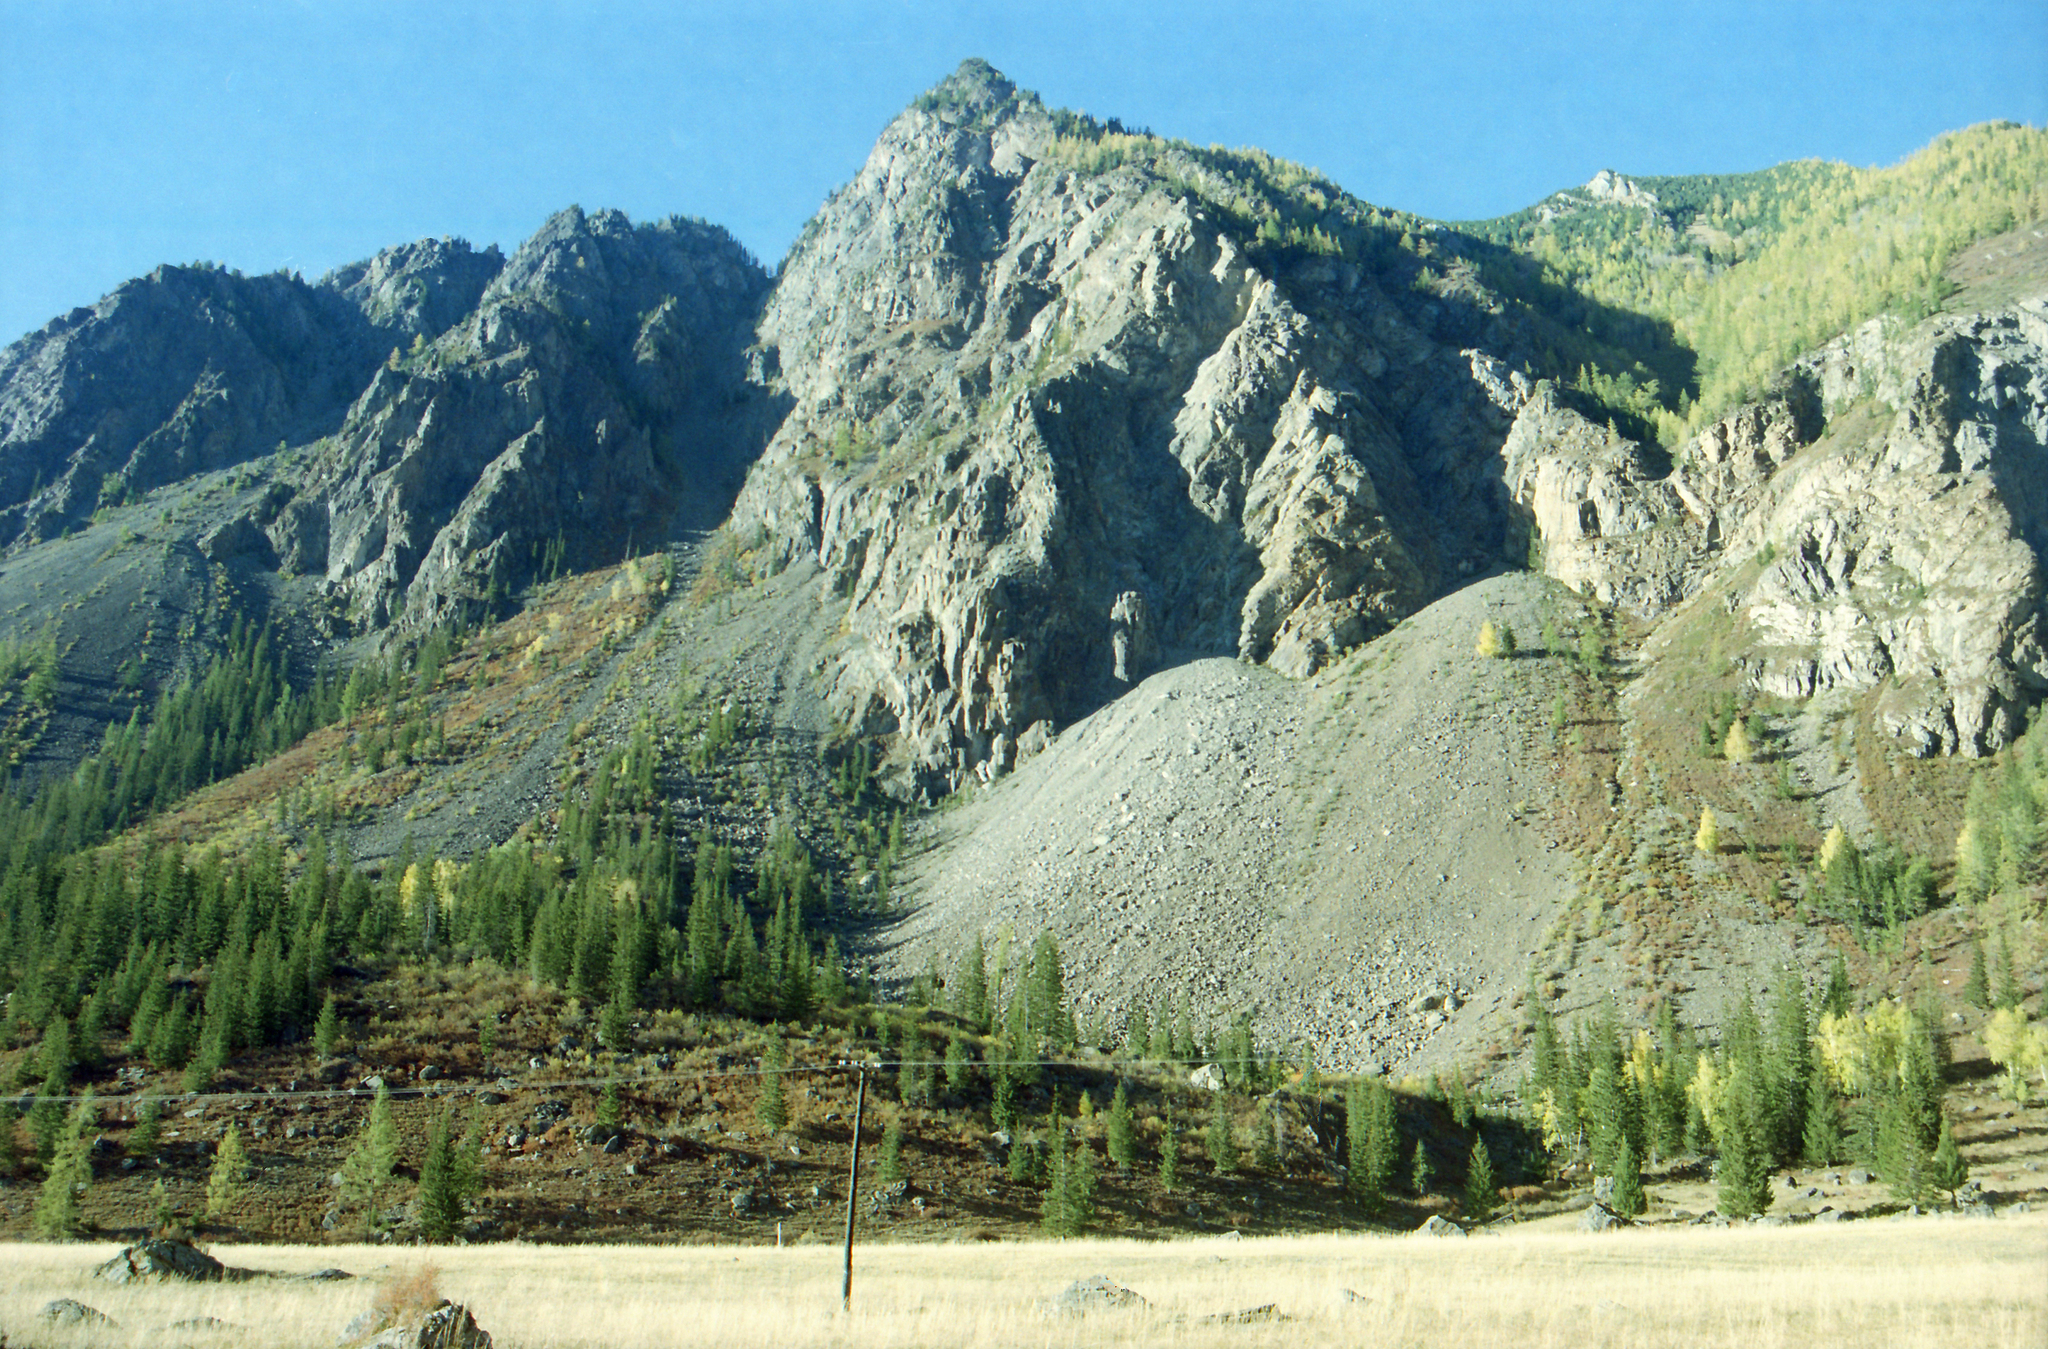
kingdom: Plantae
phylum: Tracheophyta
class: Pinopsida
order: Pinales
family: Pinaceae
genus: Larix
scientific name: Larix sibirica
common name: Siberian larch
